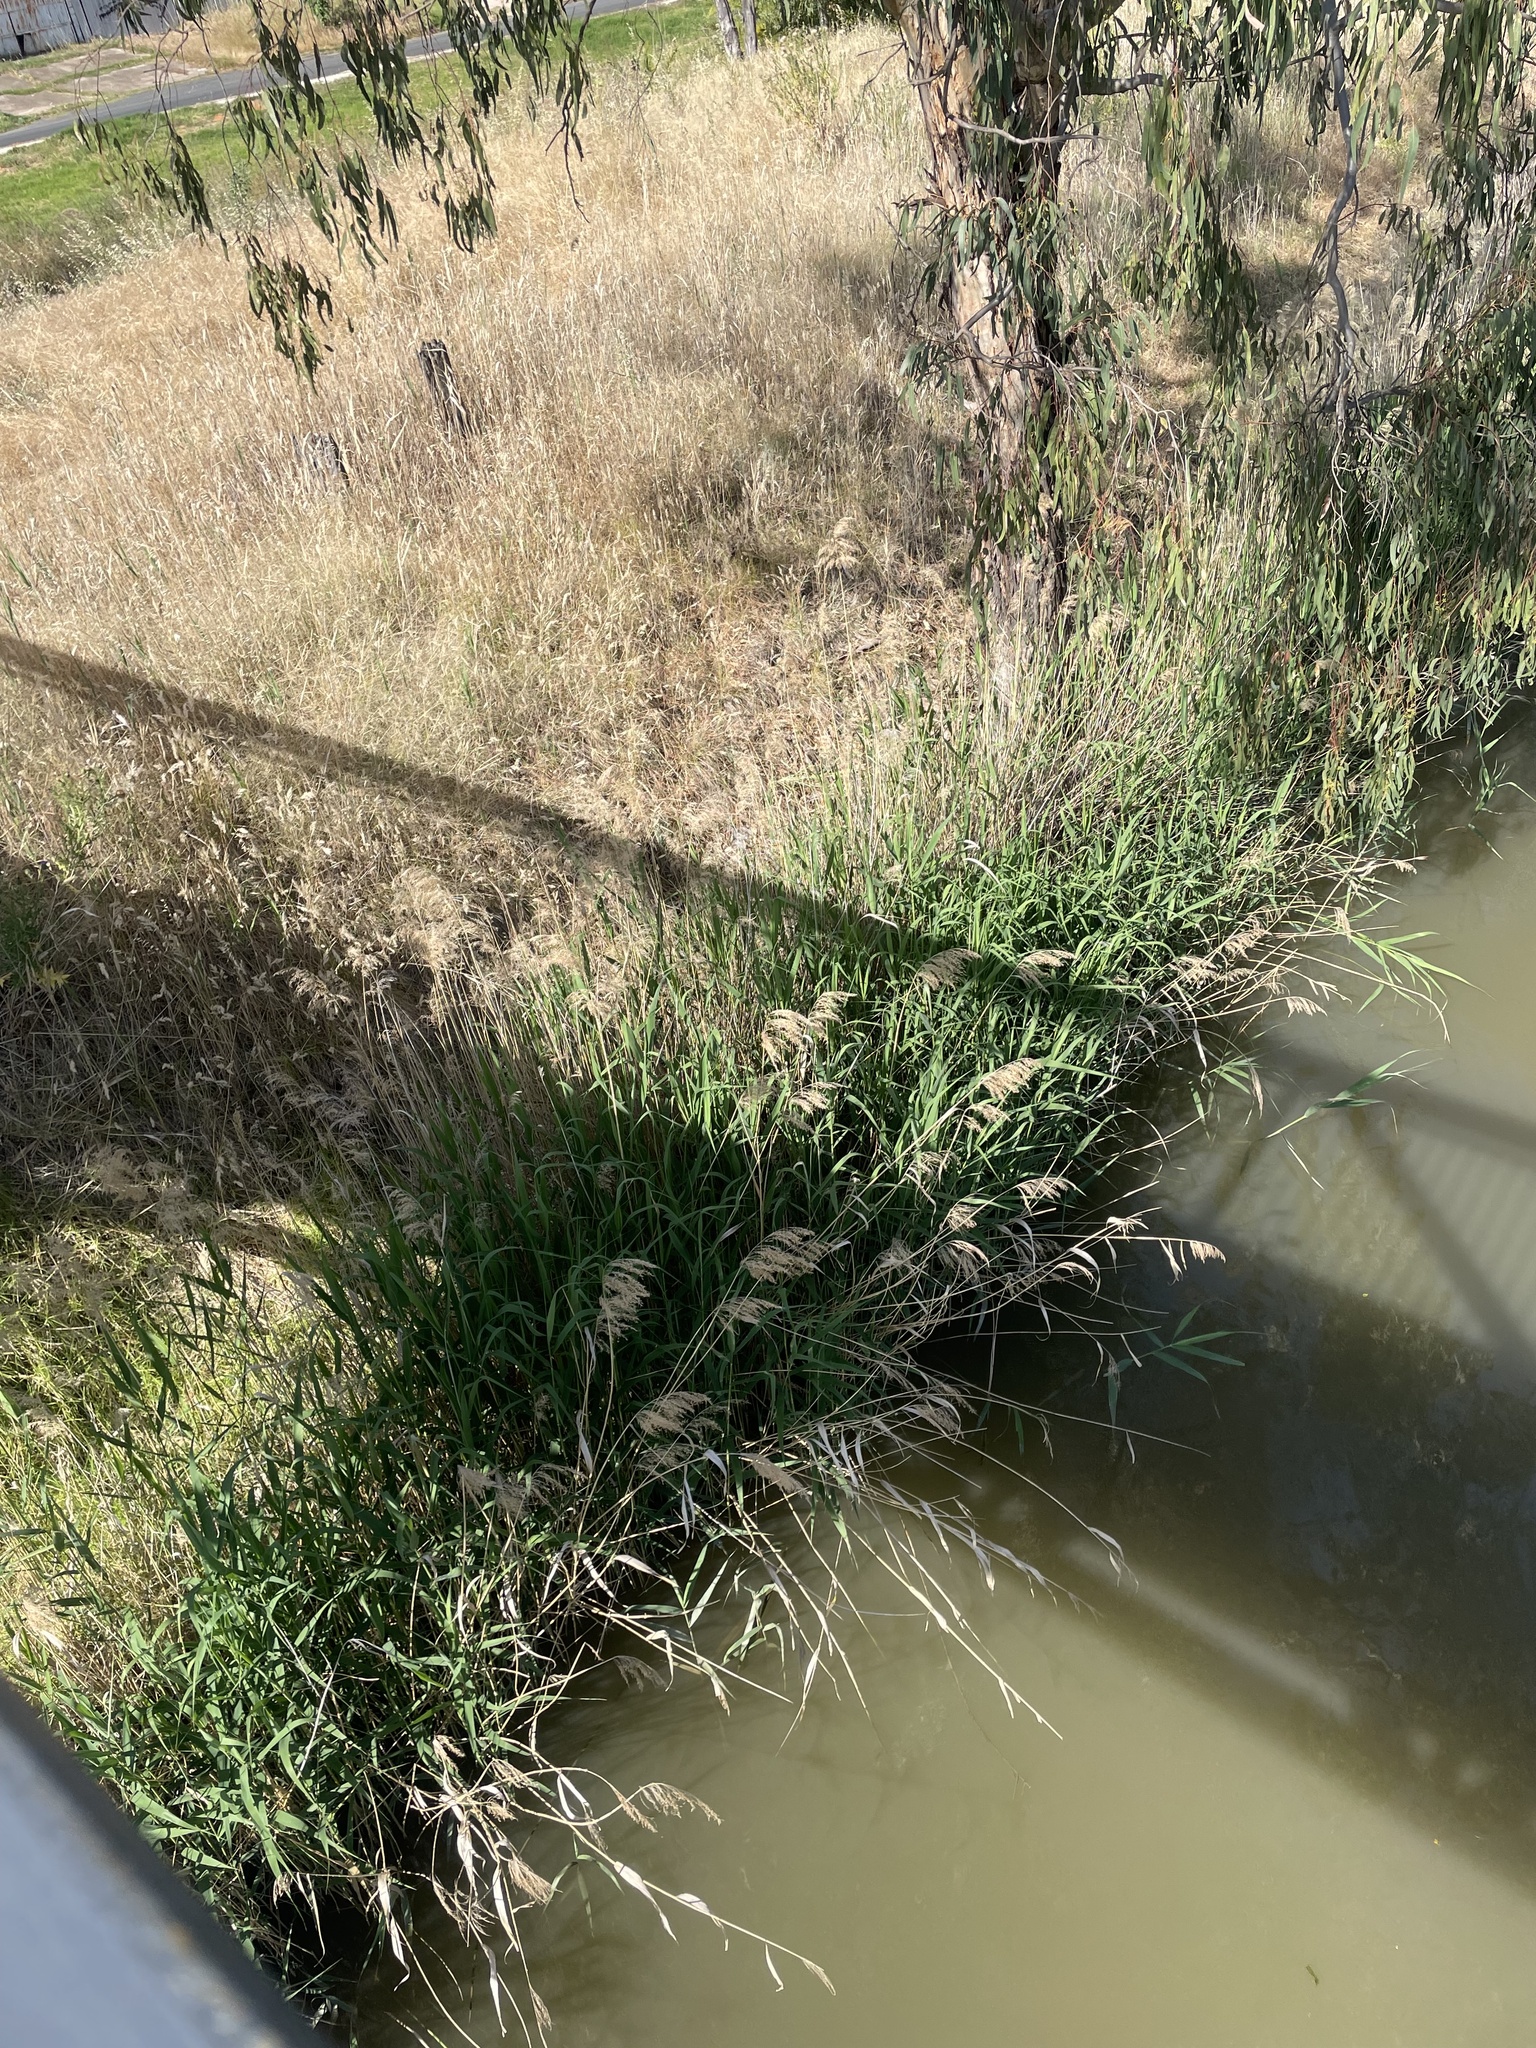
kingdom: Plantae
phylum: Tracheophyta
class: Liliopsida
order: Poales
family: Poaceae
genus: Phragmites
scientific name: Phragmites australis
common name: Common reed
